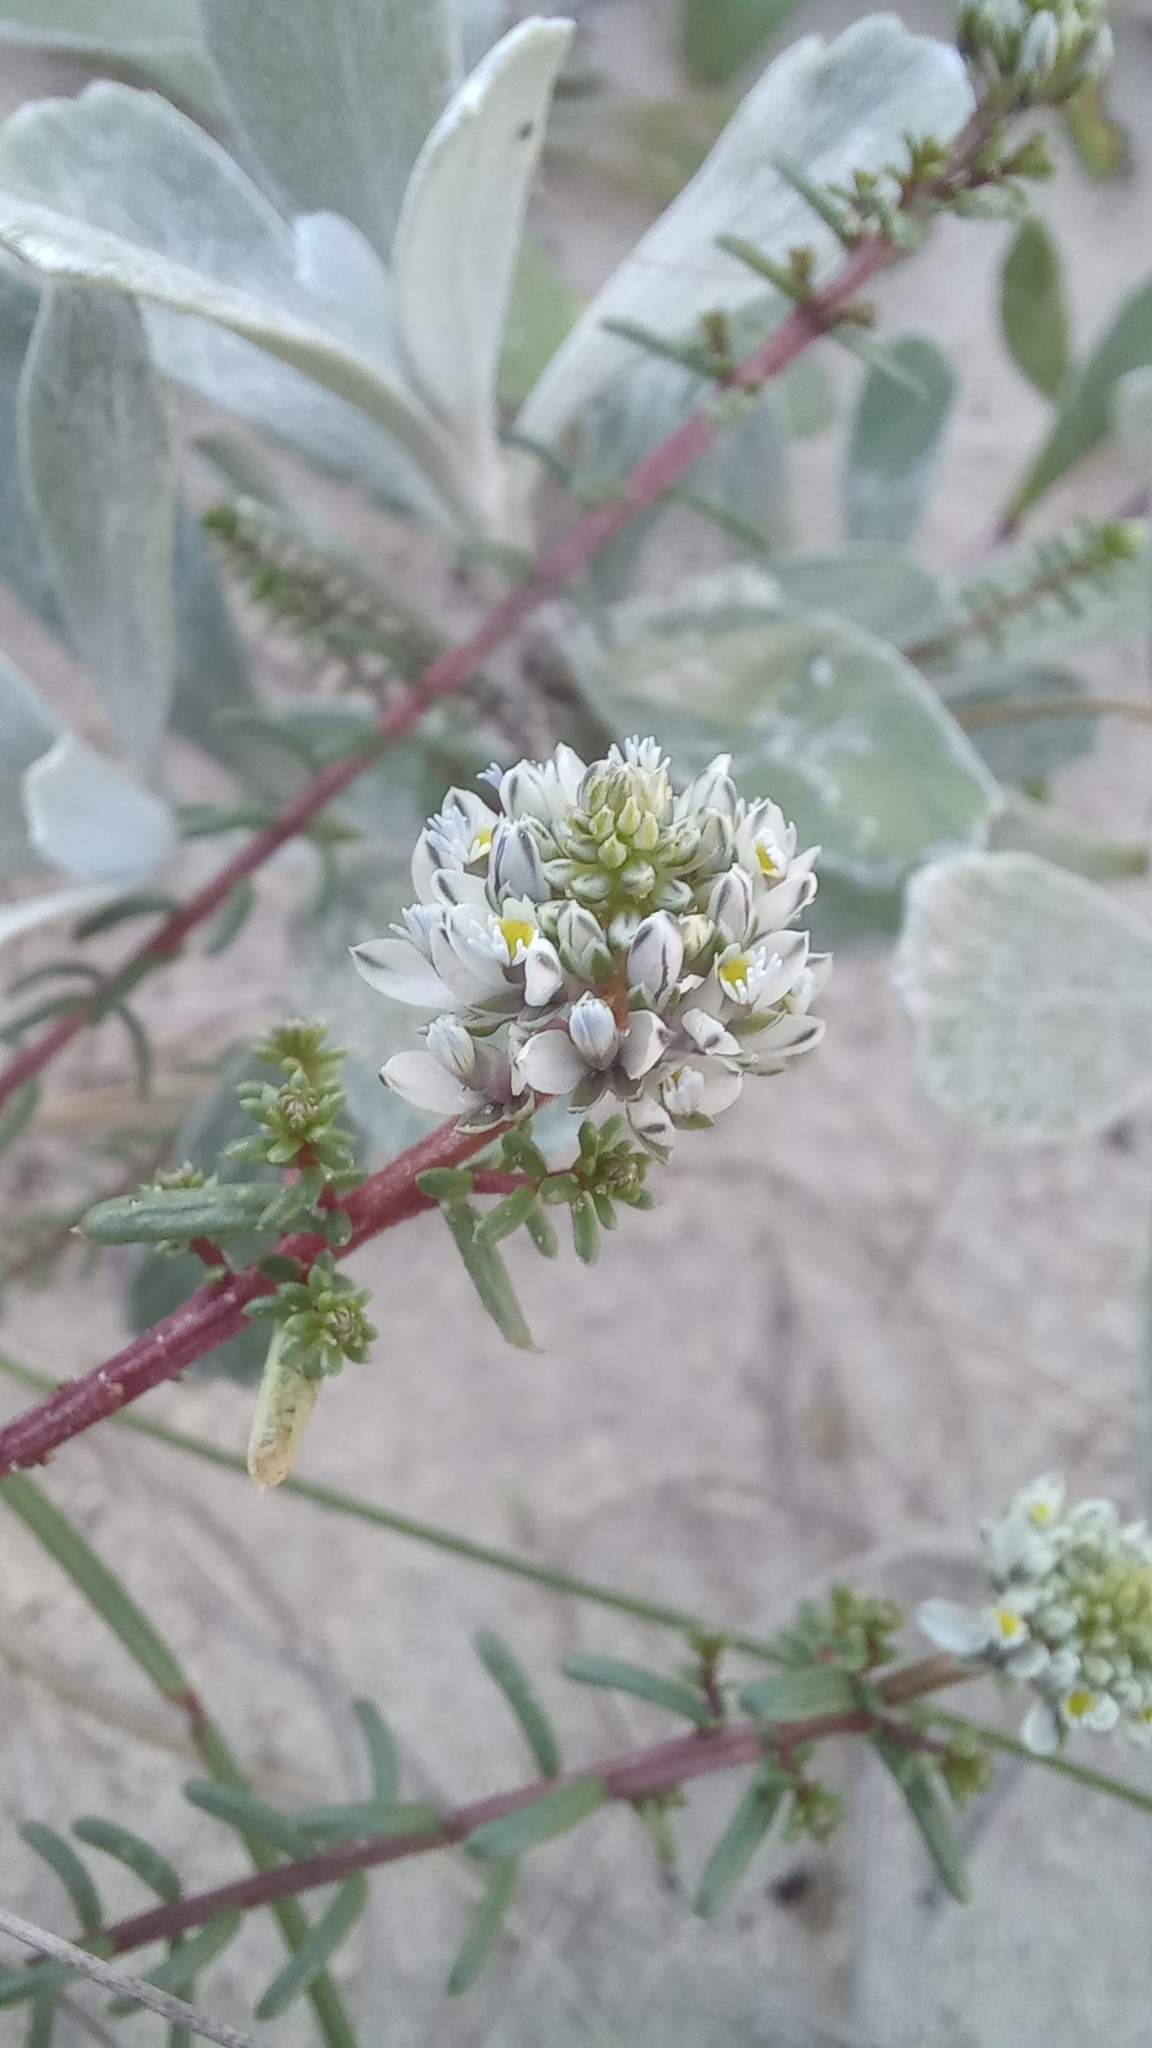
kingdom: Plantae
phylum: Tracheophyta
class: Magnoliopsida
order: Fabales
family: Polygalaceae
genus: Polygala
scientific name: Polygala cyparissias
